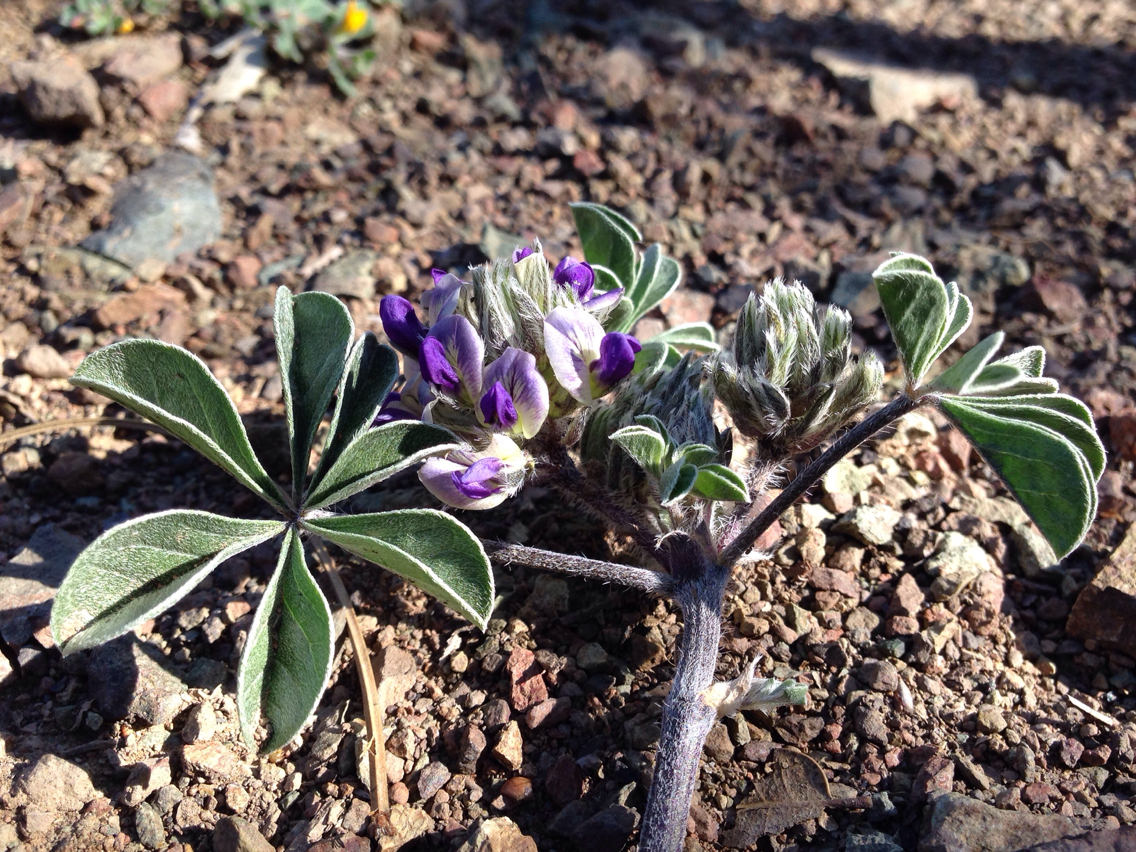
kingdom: Plantae
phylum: Tracheophyta
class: Magnoliopsida
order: Fabales
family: Fabaceae
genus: Pediomelum
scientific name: Pediomelum californicum
